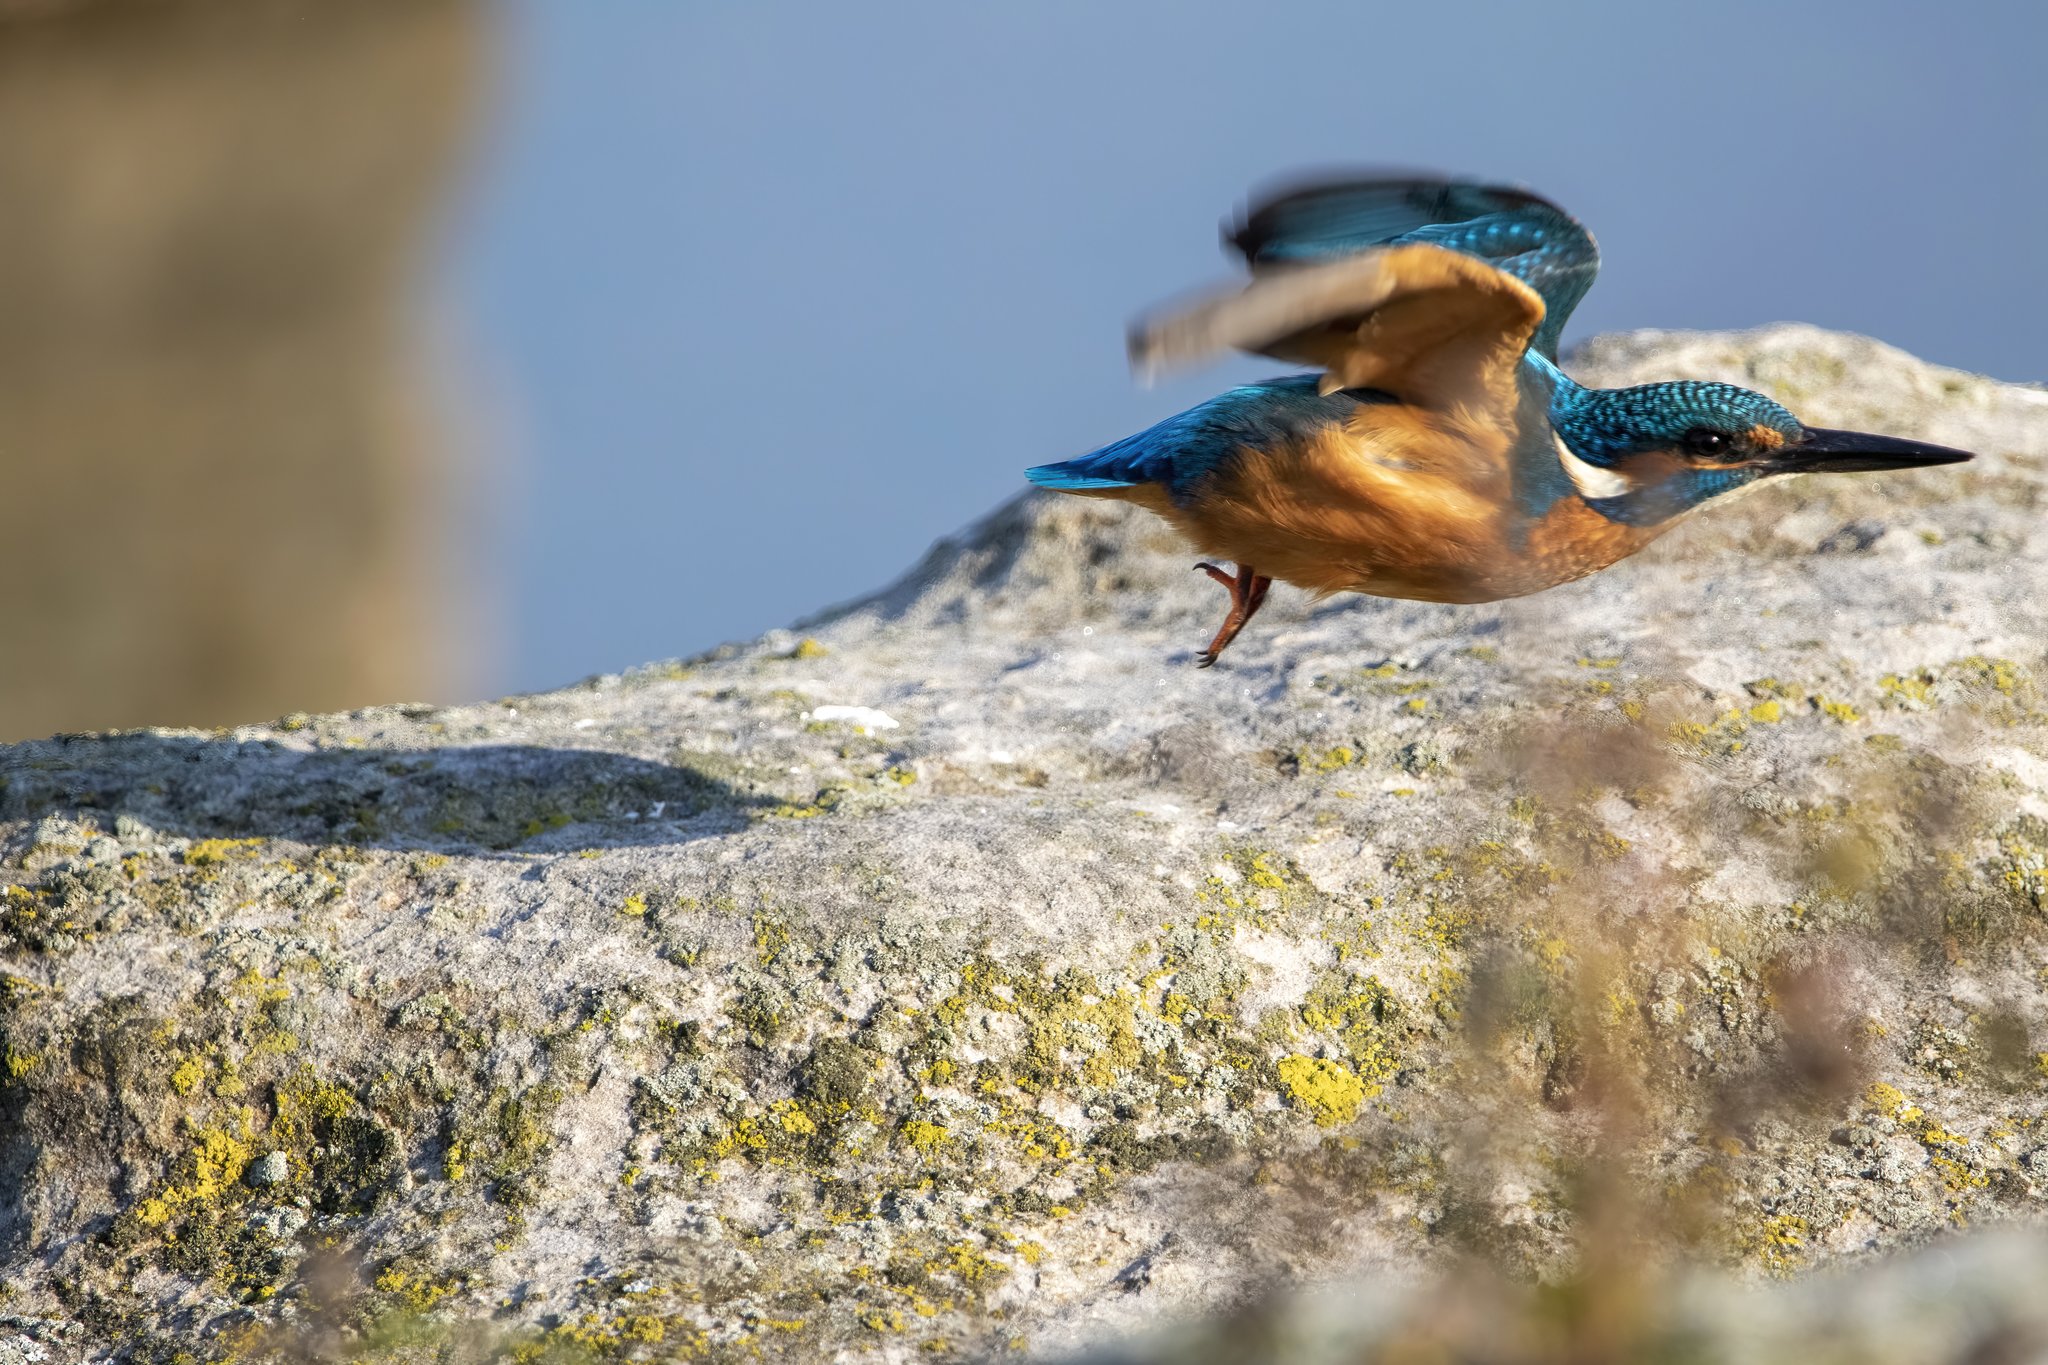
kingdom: Animalia
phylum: Chordata
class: Aves
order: Coraciiformes
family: Alcedinidae
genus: Alcedo
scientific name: Alcedo atthis
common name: Common kingfisher
